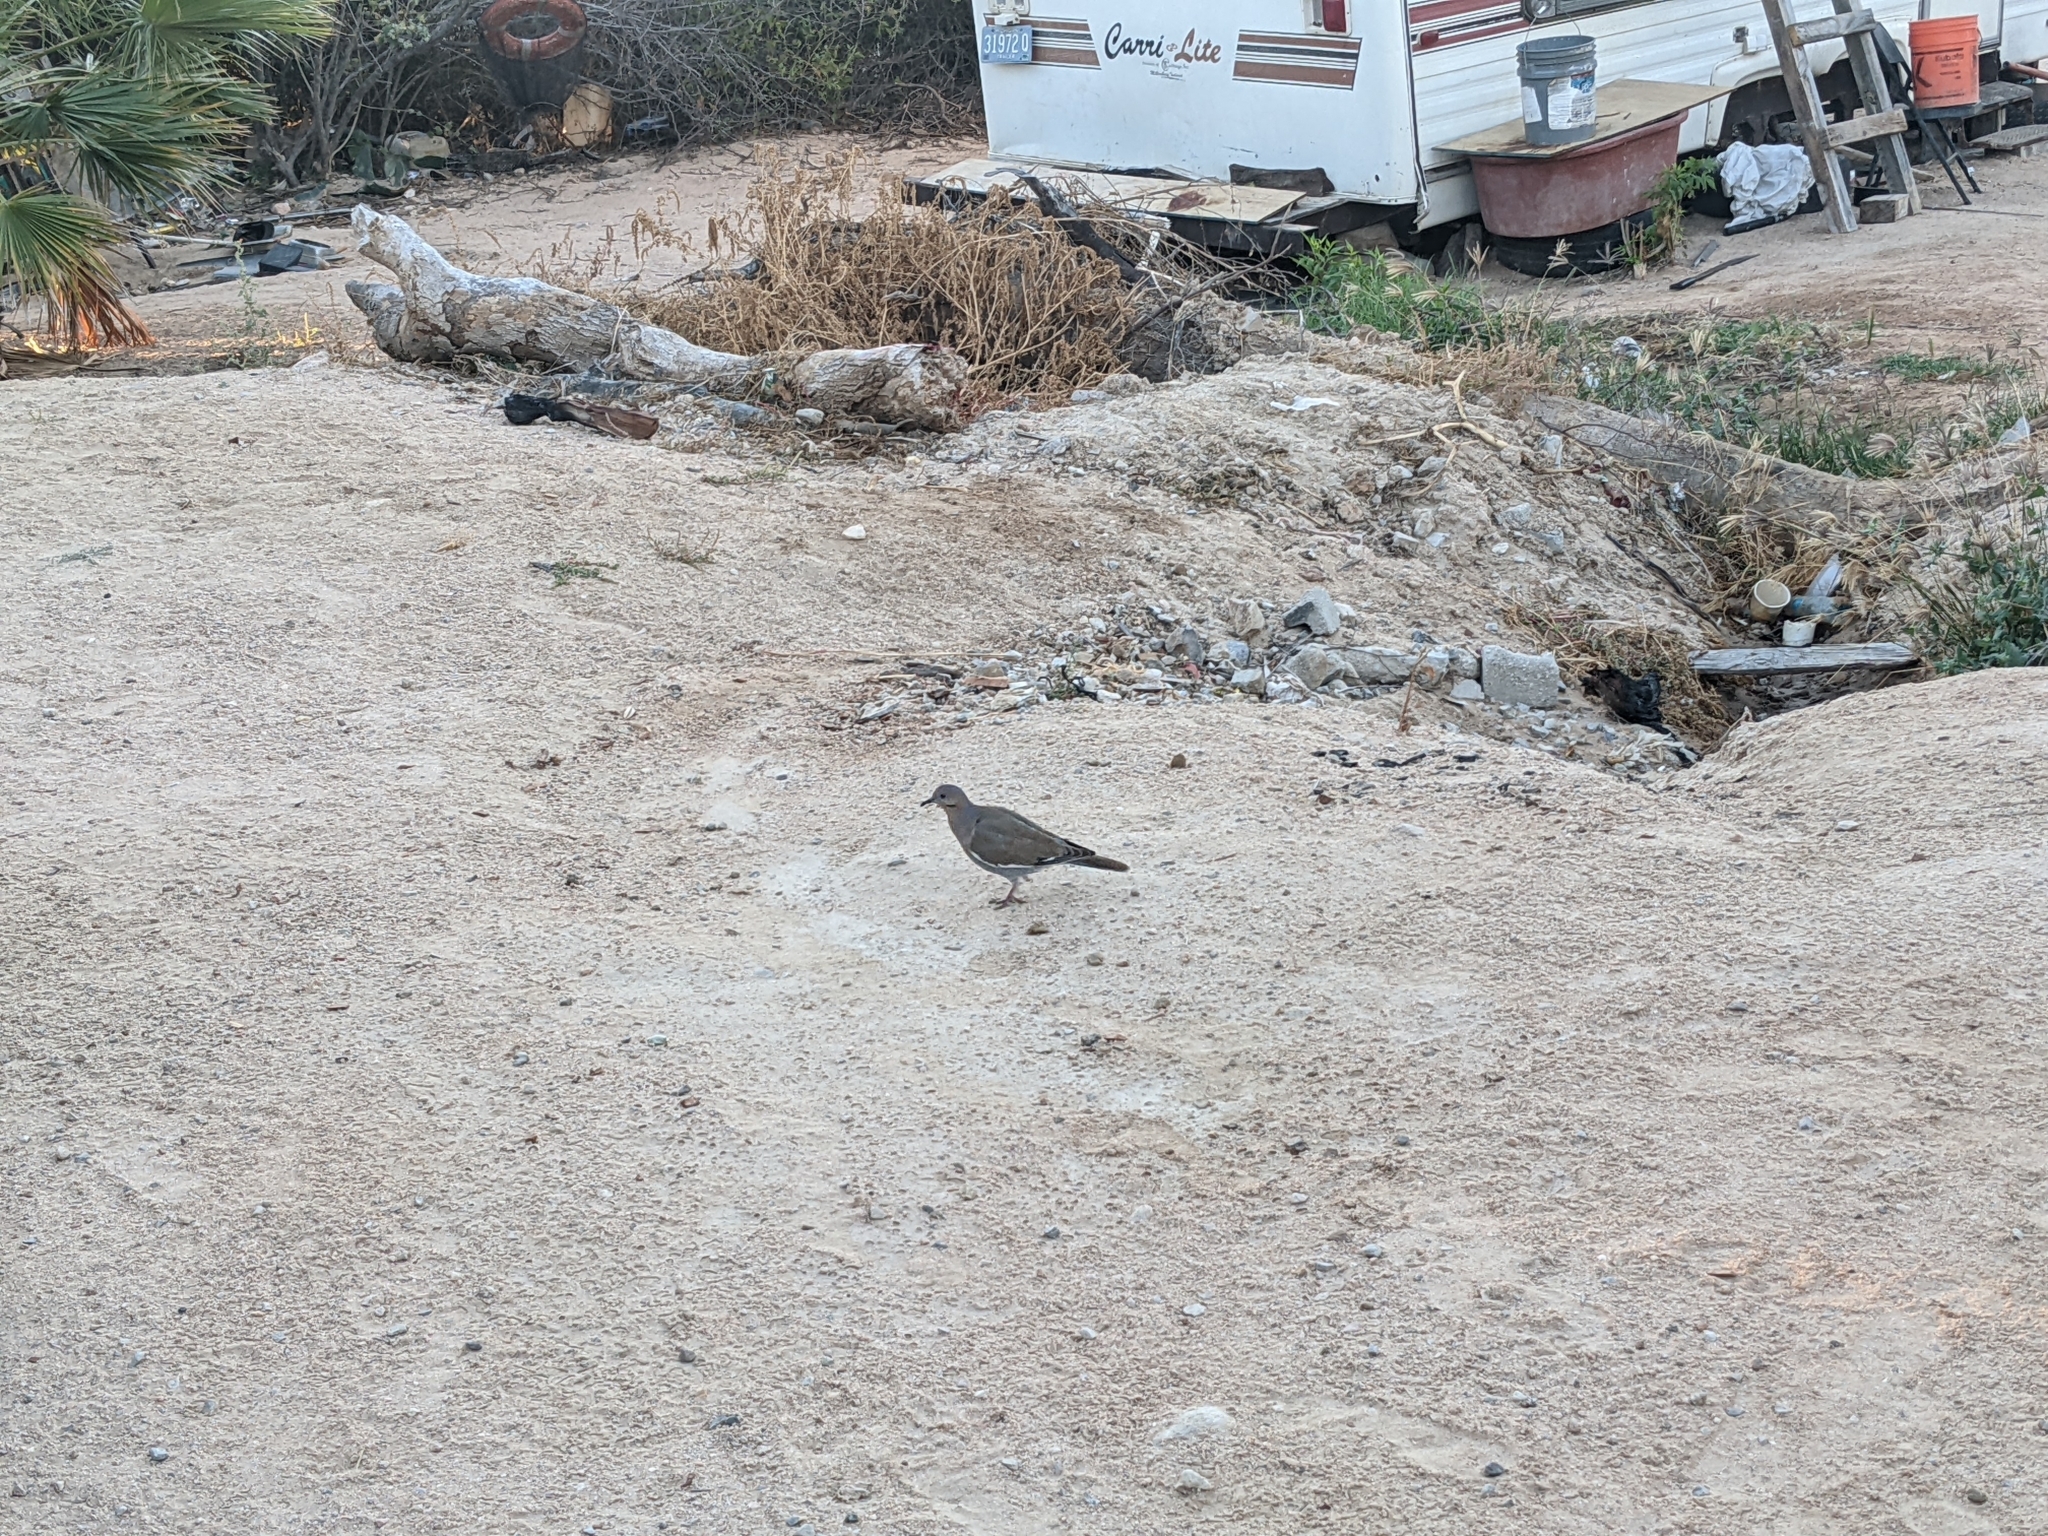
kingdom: Animalia
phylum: Chordata
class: Aves
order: Columbiformes
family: Columbidae
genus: Zenaida
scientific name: Zenaida asiatica
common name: White-winged dove
